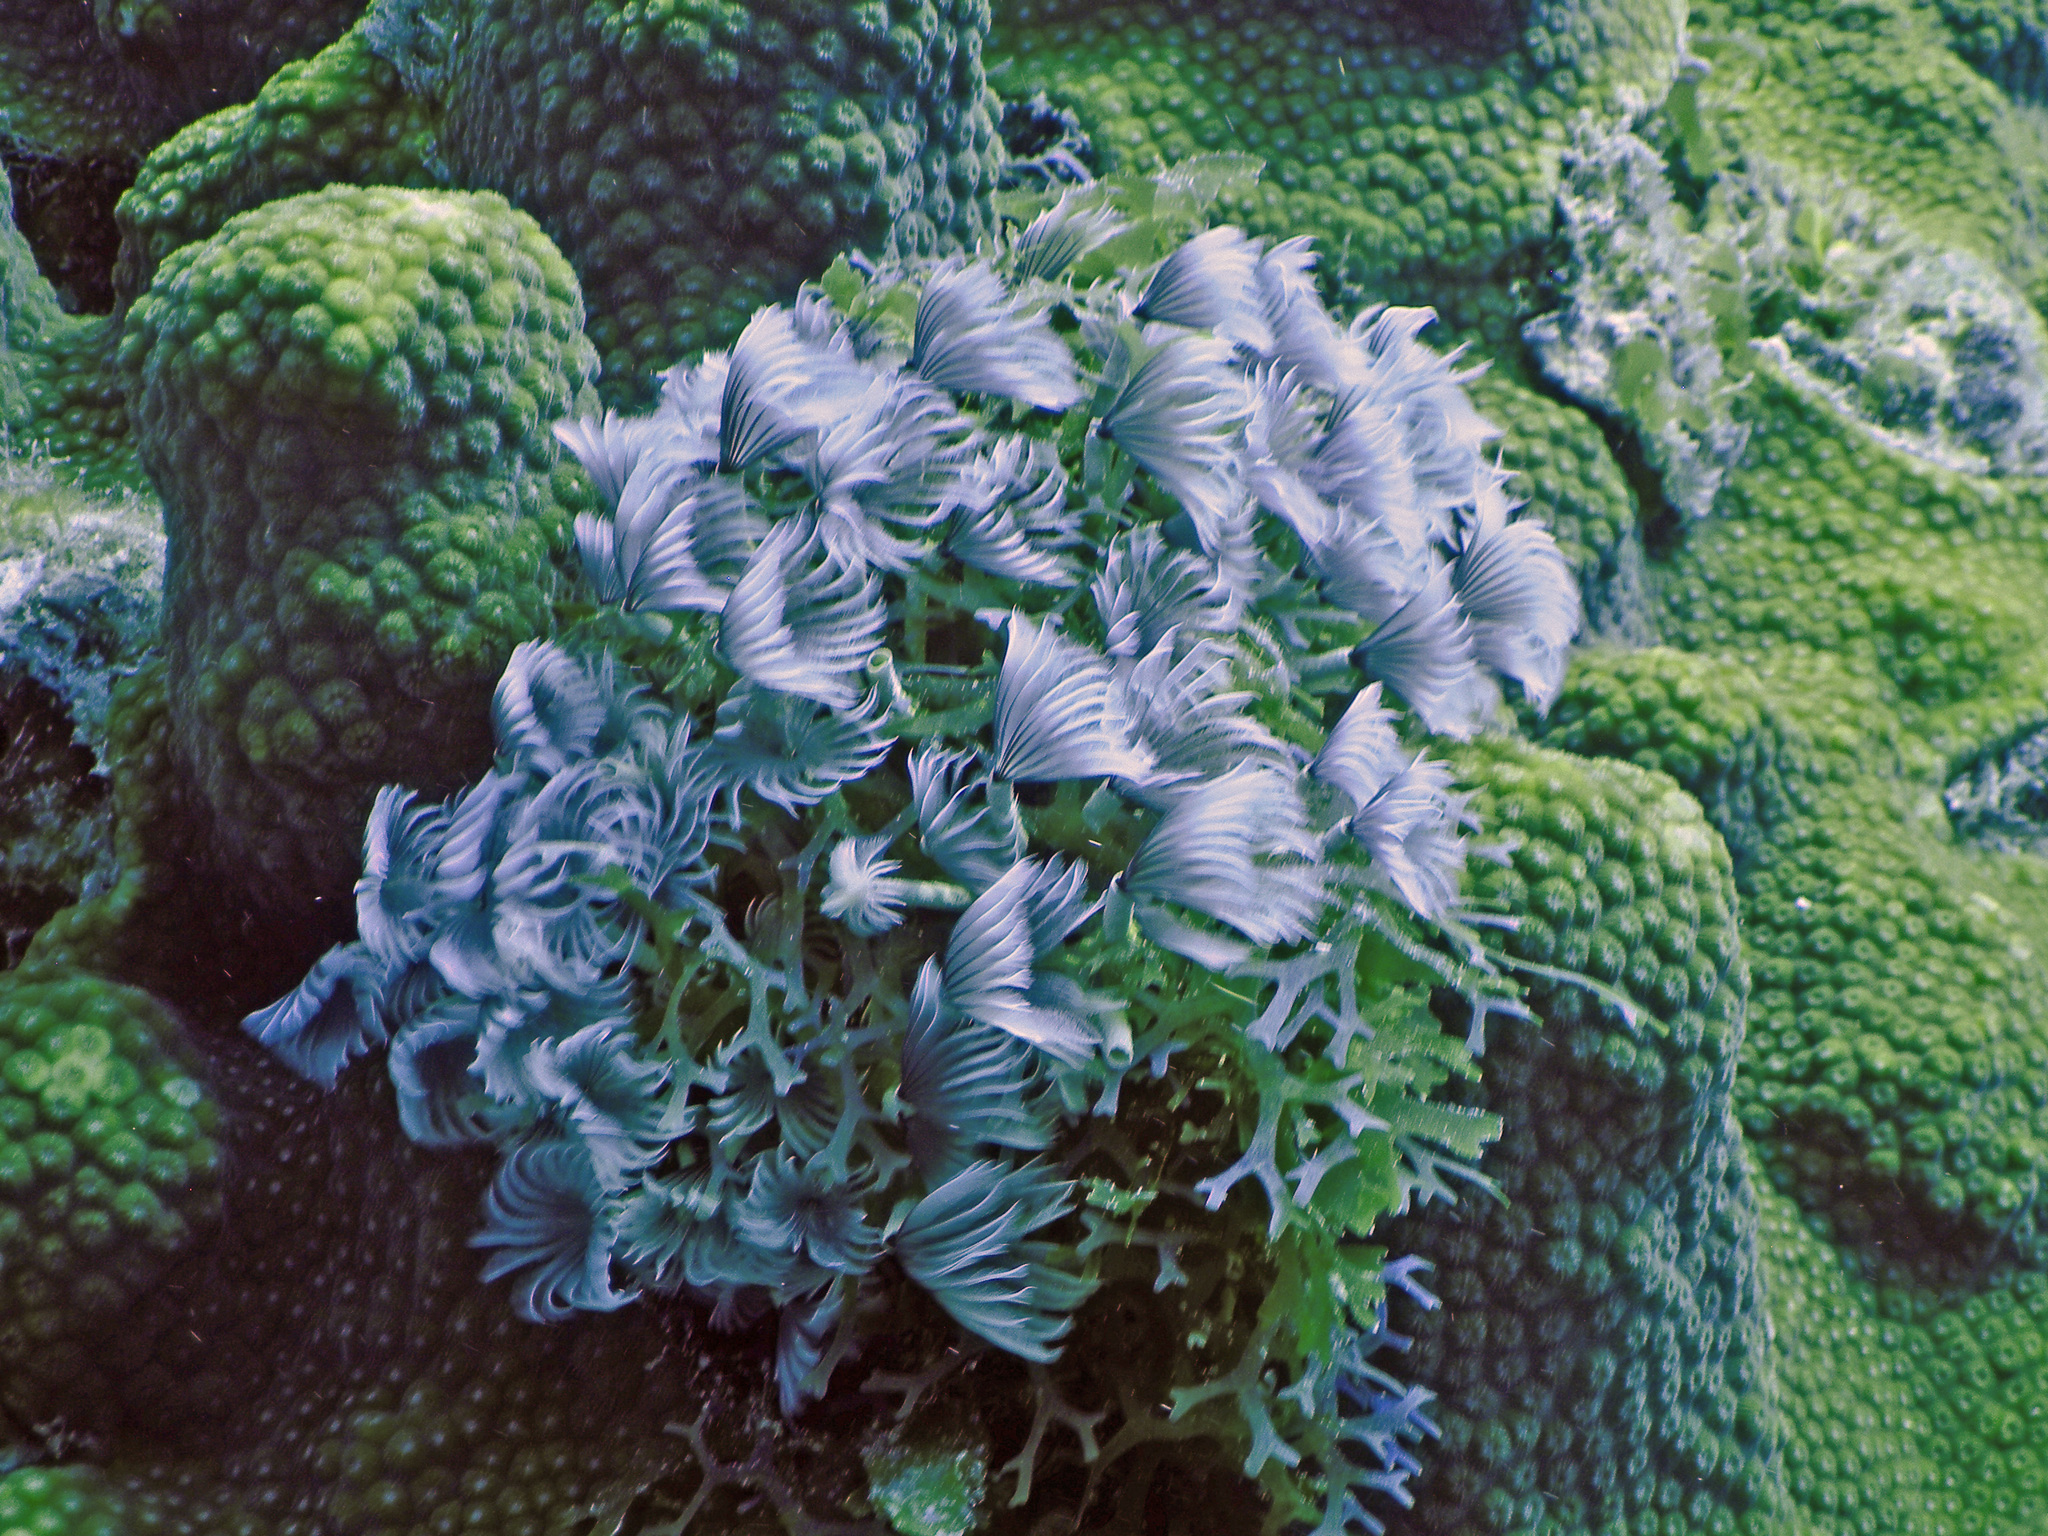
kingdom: Animalia
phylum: Annelida
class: Polychaeta
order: Sabellida
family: Sabellidae
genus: Bispira
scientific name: Bispira brunnea
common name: Social feather duster
